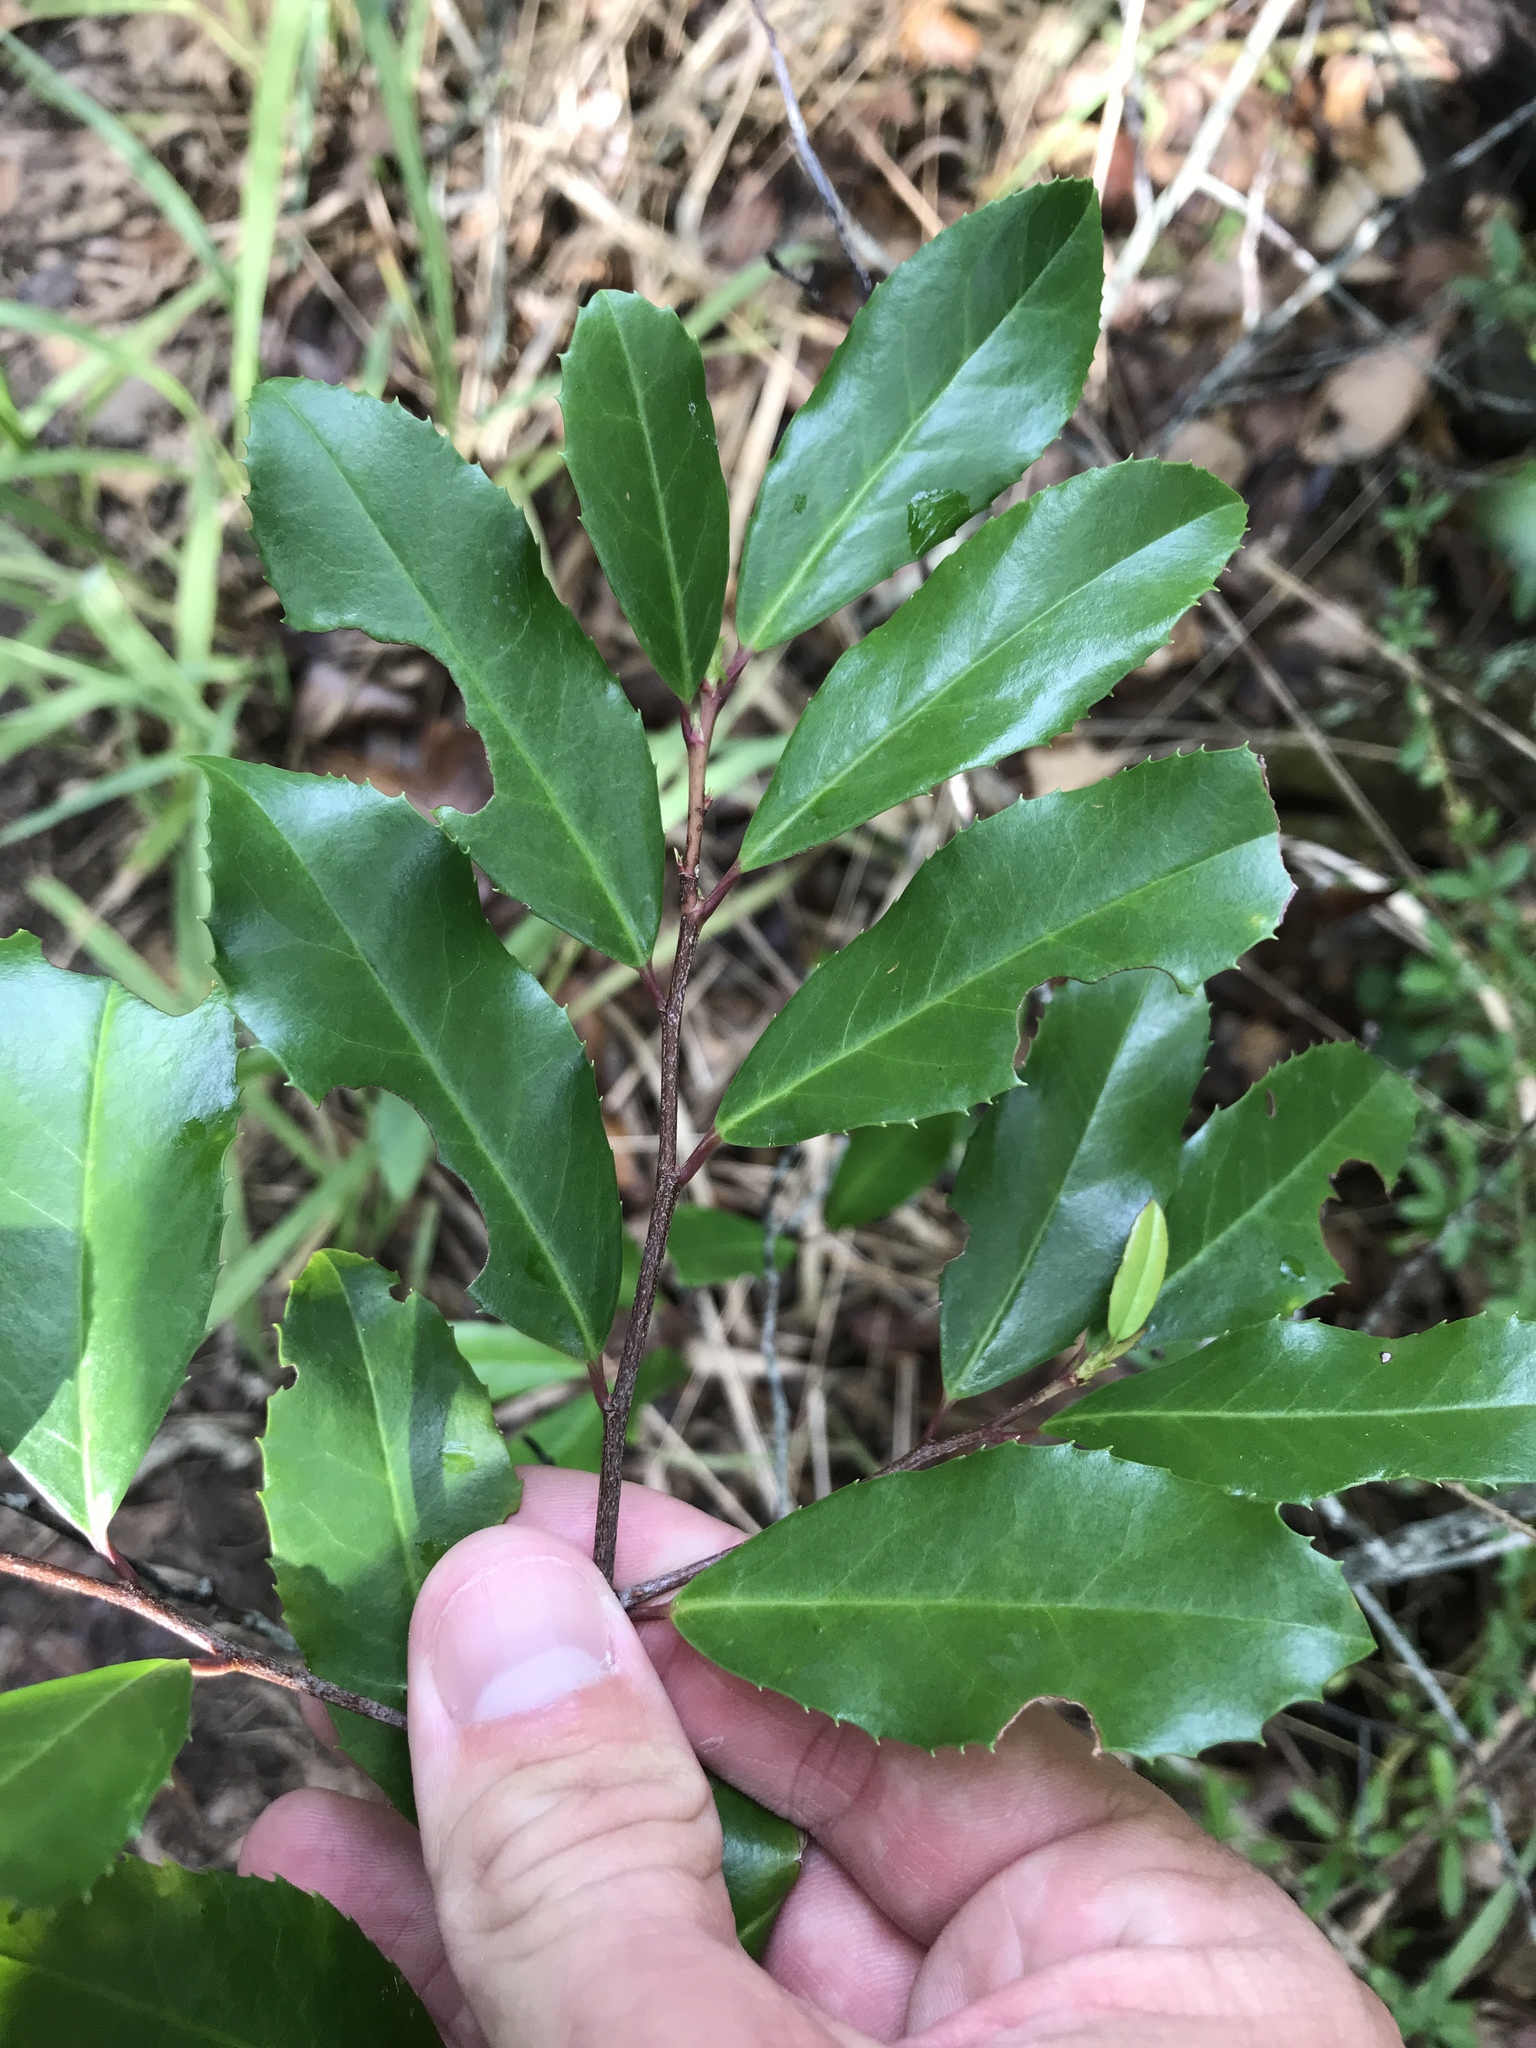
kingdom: Plantae
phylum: Tracheophyta
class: Magnoliopsida
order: Rosales
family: Rosaceae
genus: Prunus
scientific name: Prunus caroliniana
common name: Carolina laurel cherry
